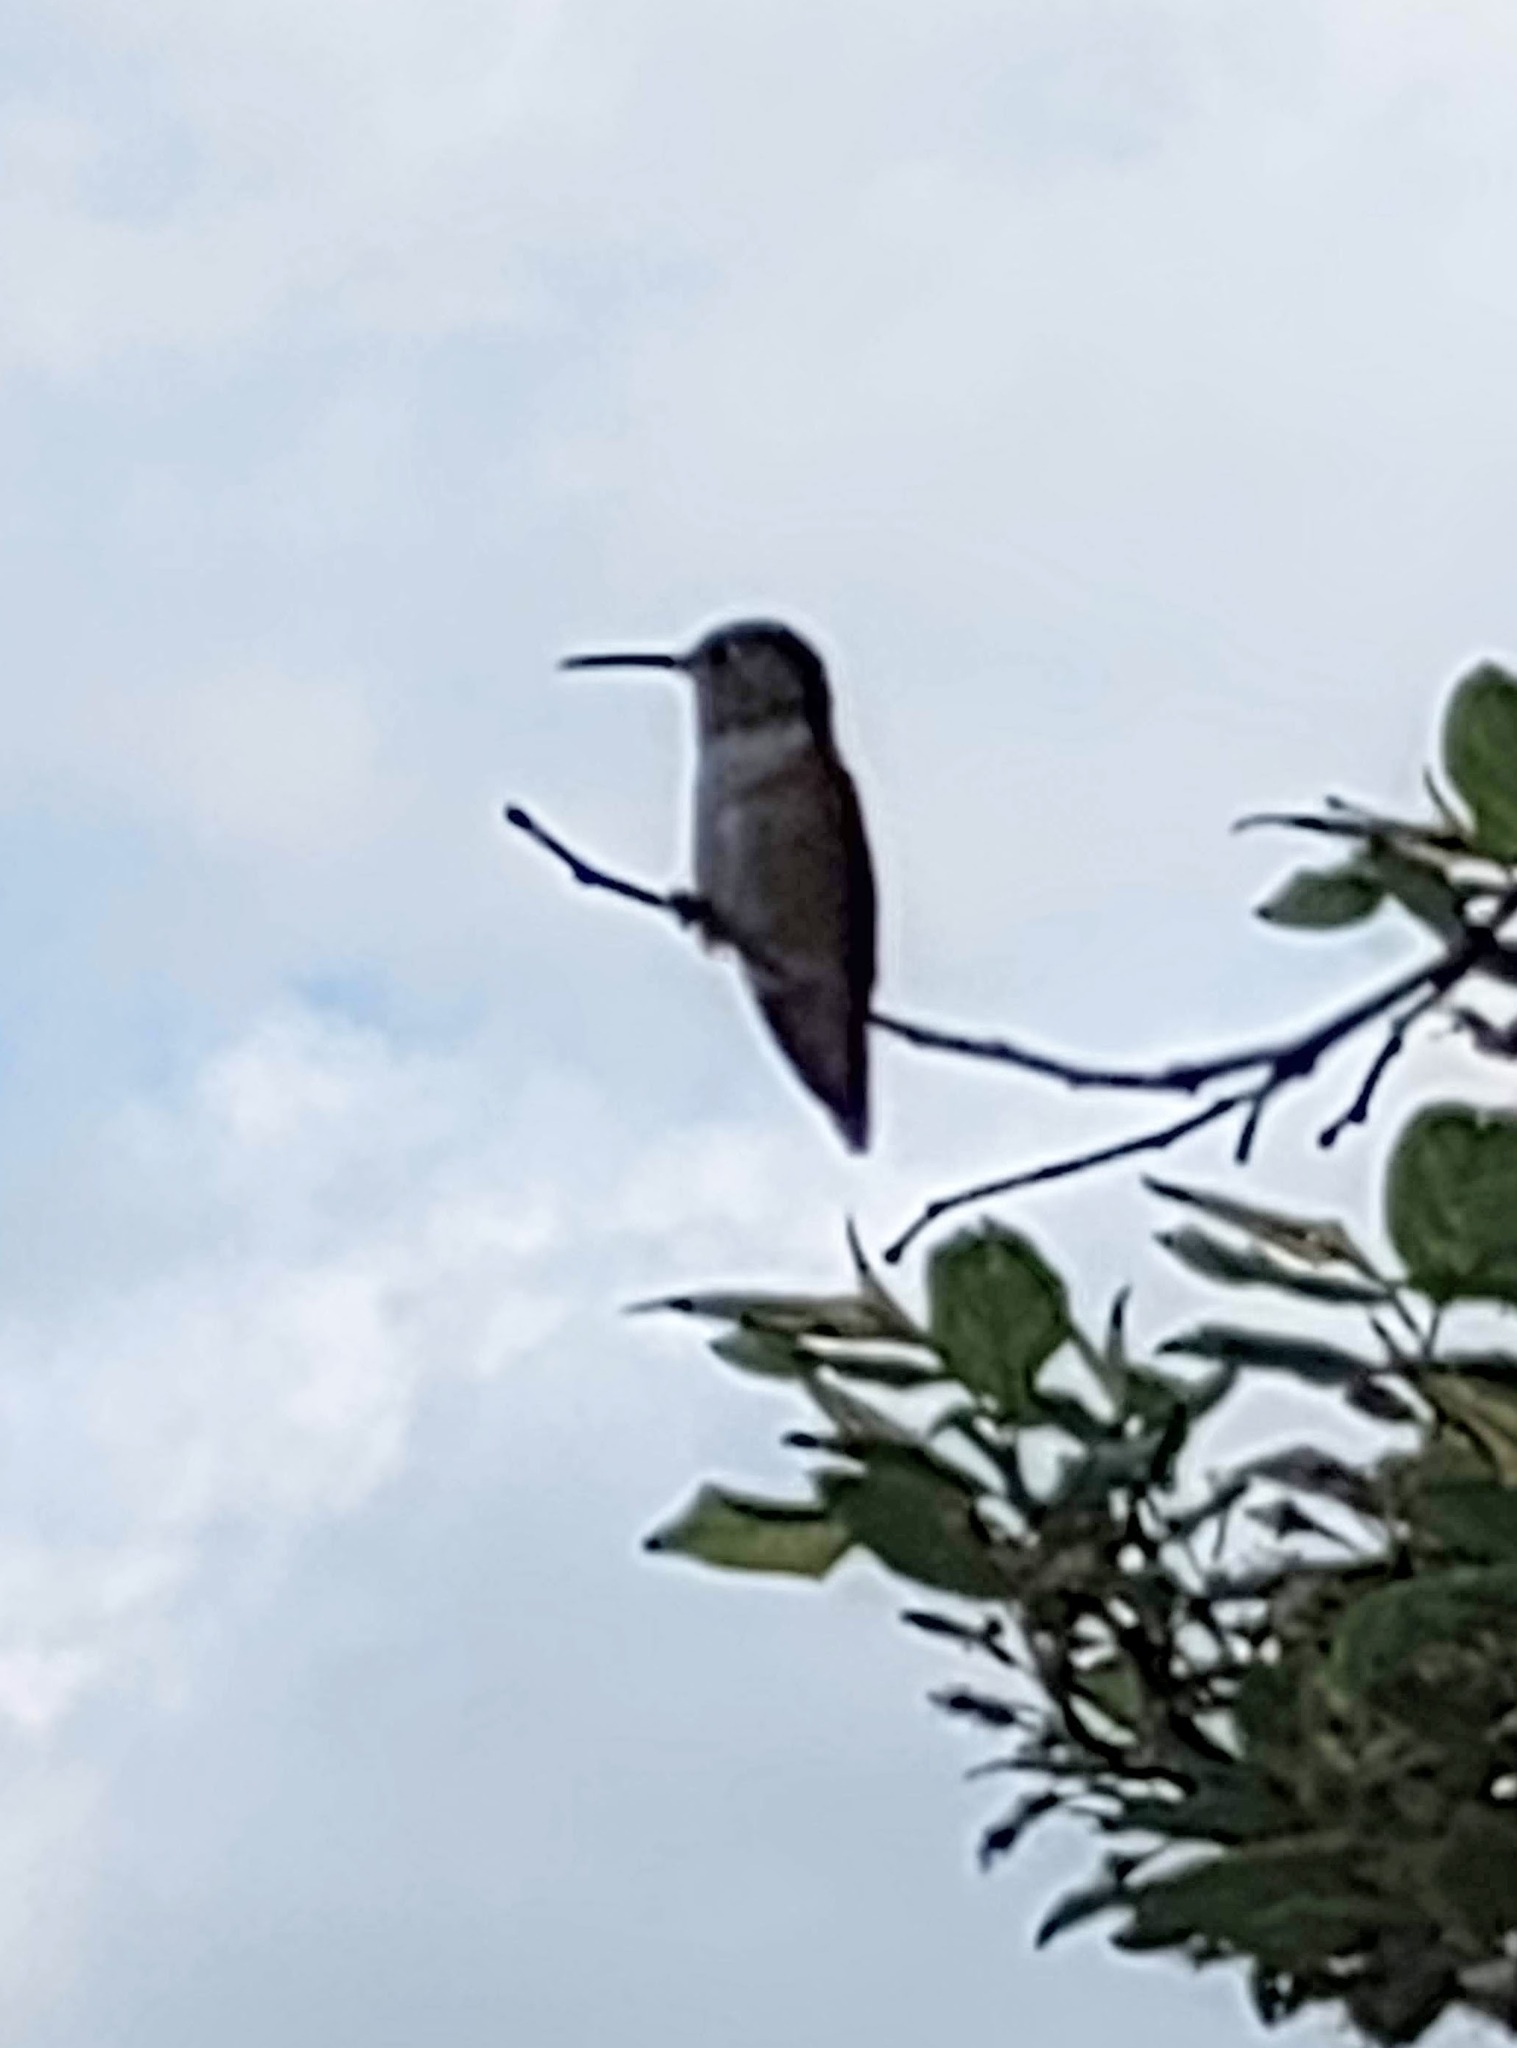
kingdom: Animalia
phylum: Chordata
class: Aves
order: Apodiformes
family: Trochilidae
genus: Selasphorus
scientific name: Selasphorus
